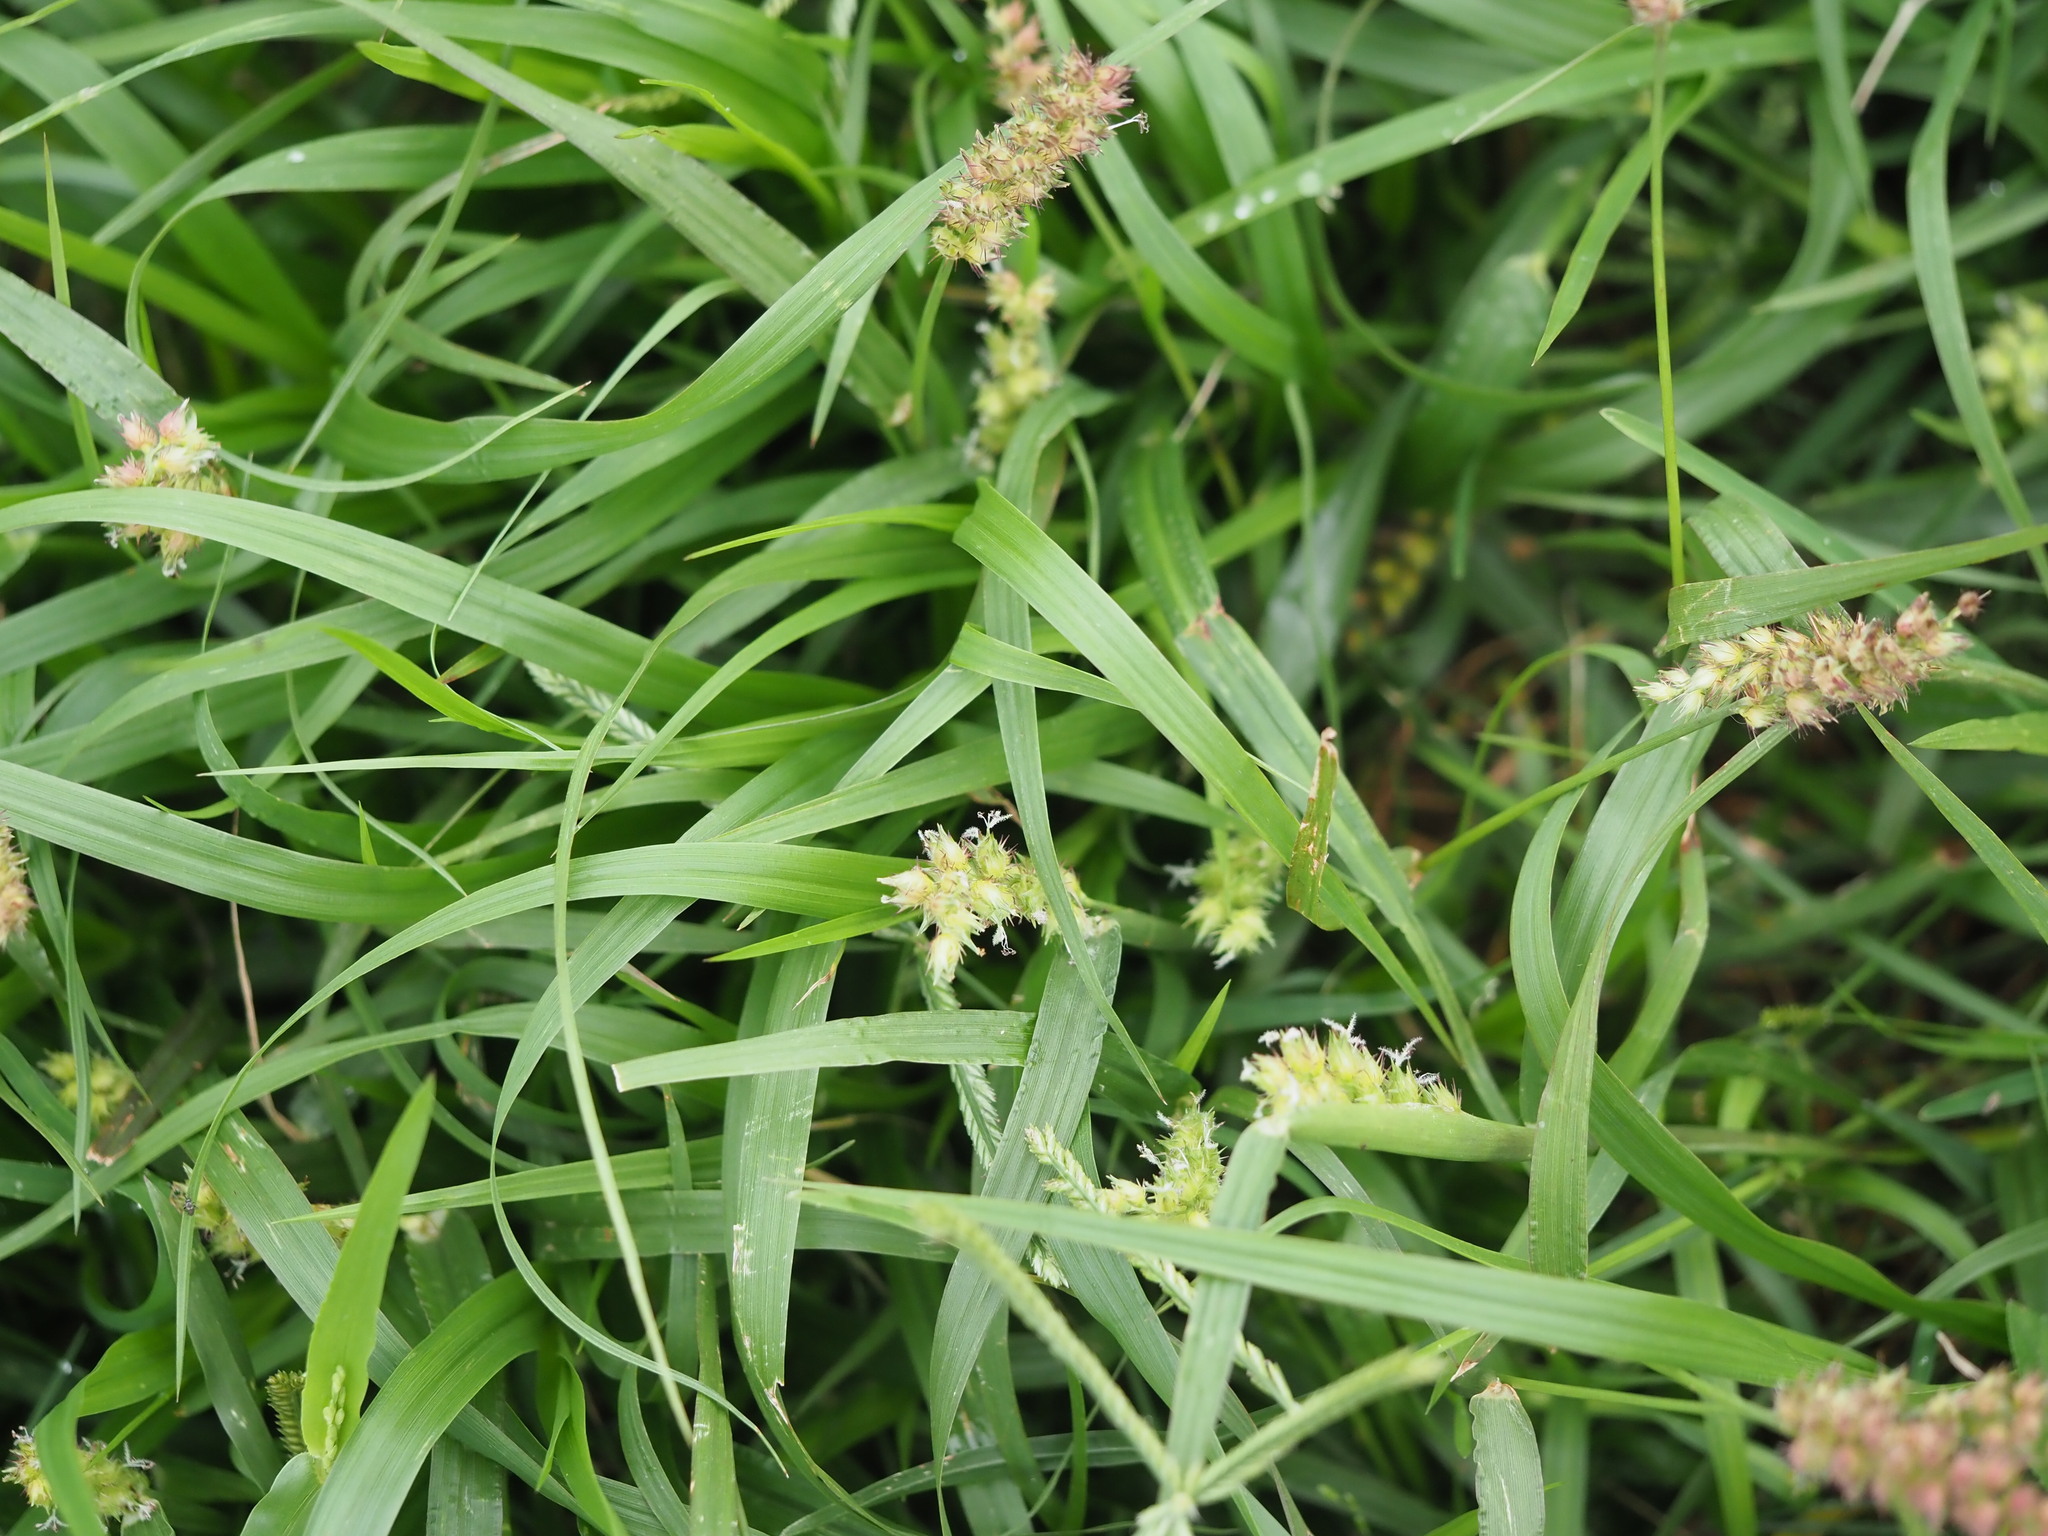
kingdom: Plantae
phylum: Tracheophyta
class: Liliopsida
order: Poales
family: Poaceae
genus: Cenchrus
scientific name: Cenchrus echinatus
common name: Southern sandbur
